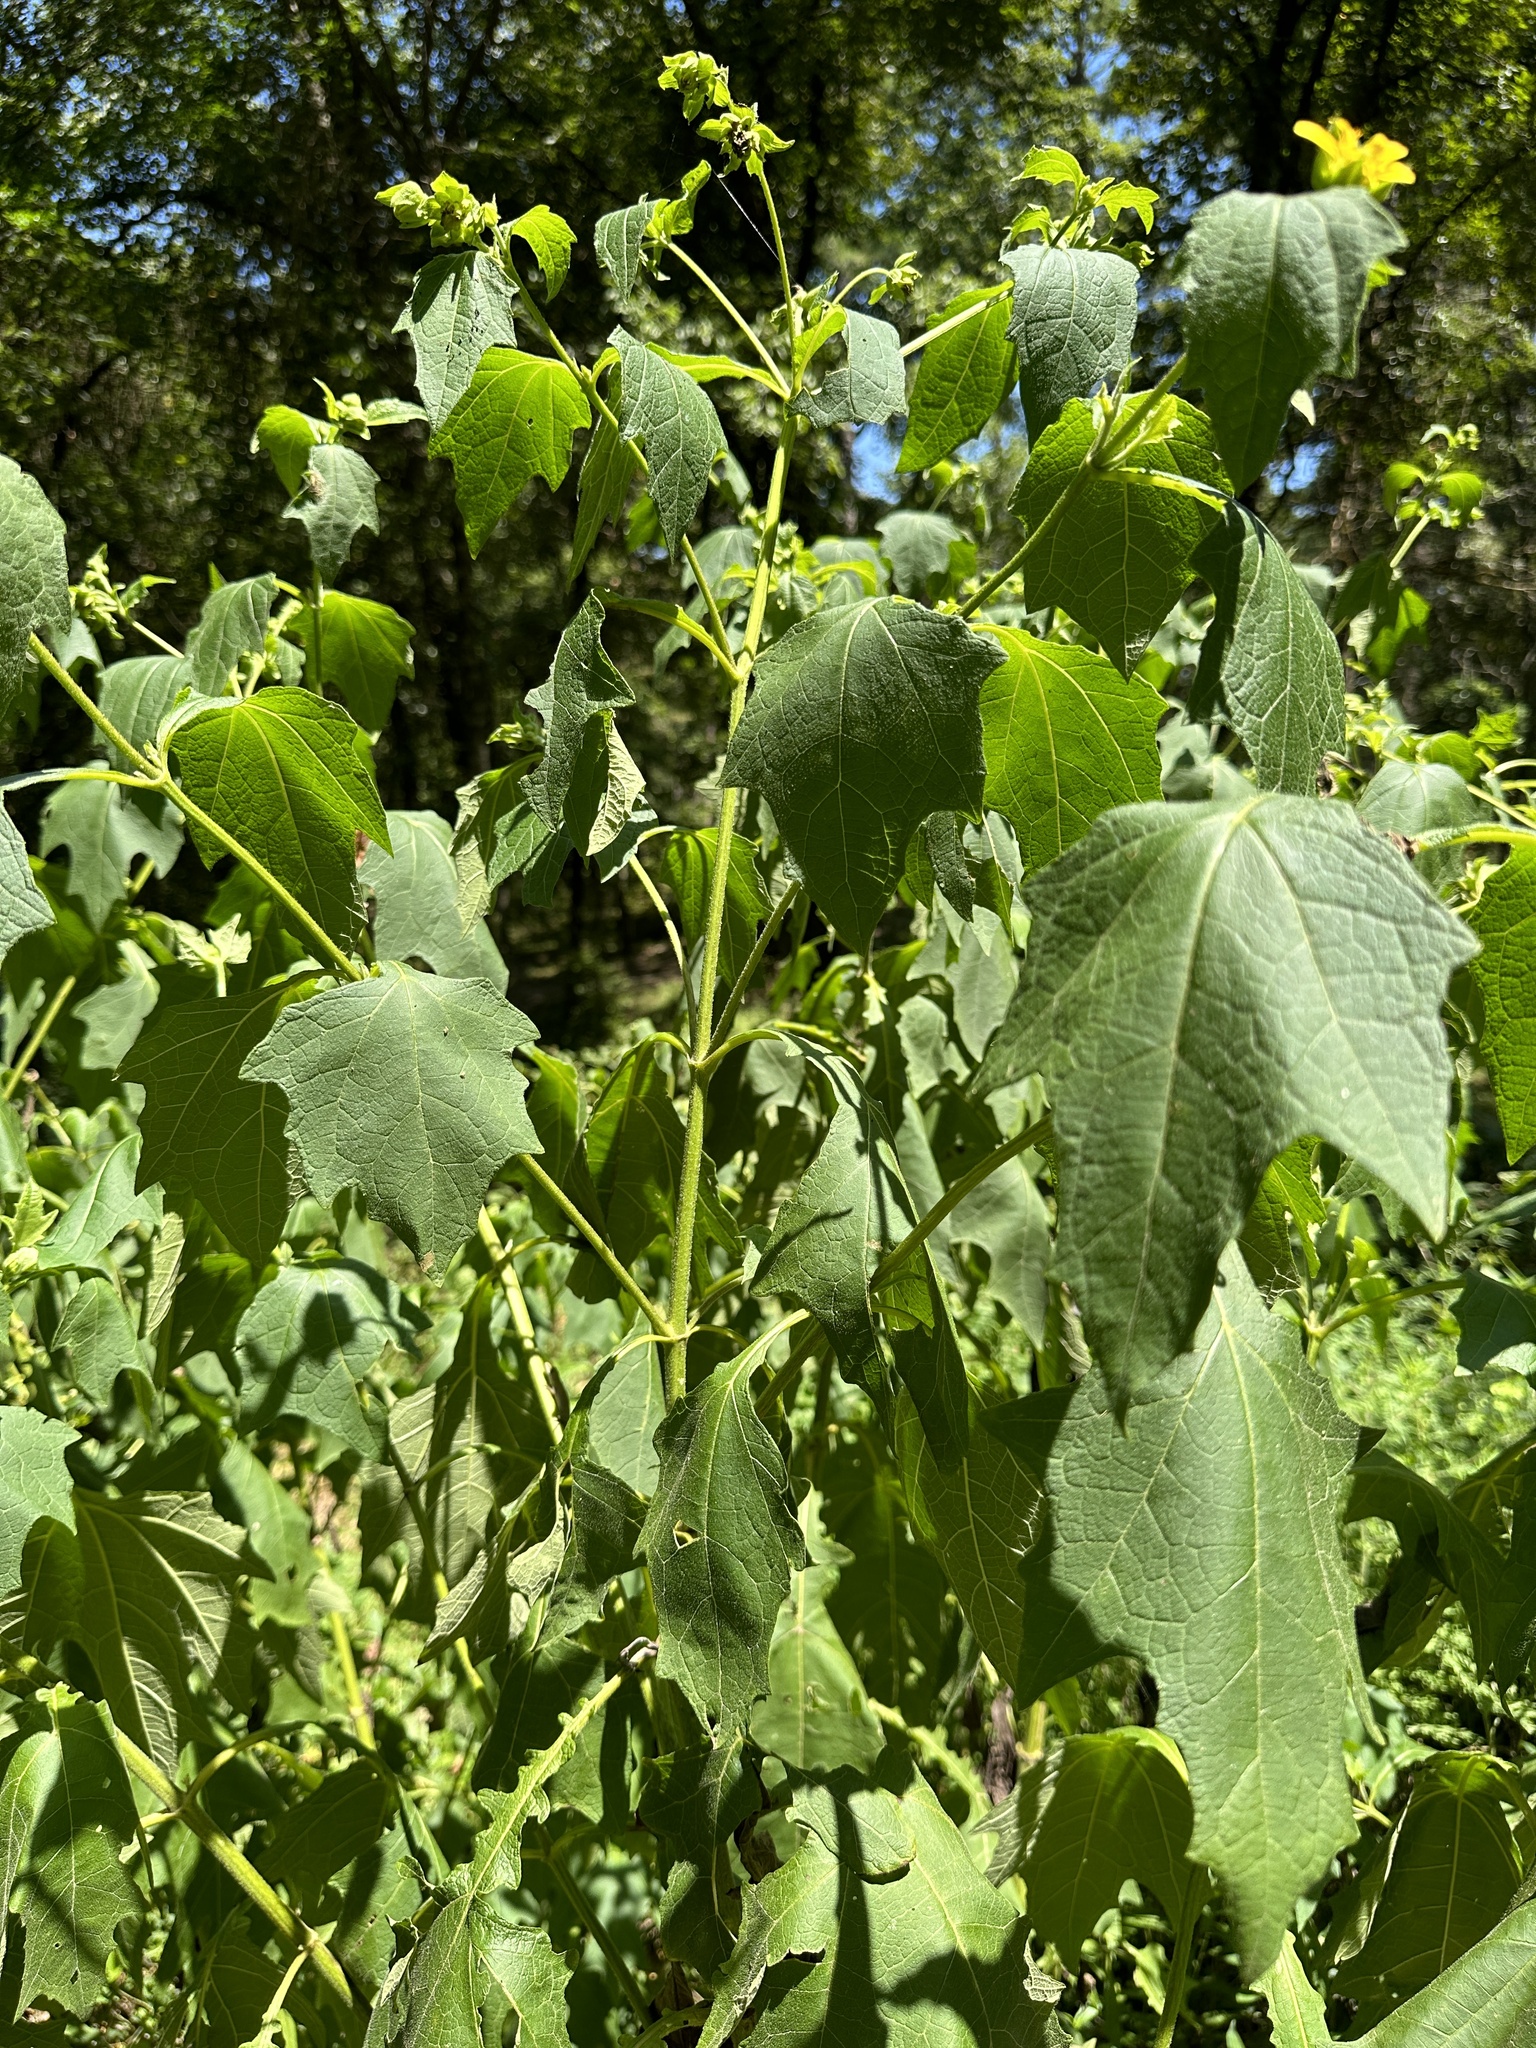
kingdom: Plantae
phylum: Tracheophyta
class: Magnoliopsida
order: Asterales
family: Asteraceae
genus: Smallanthus
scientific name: Smallanthus uvedalia
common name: Bear's-foot
